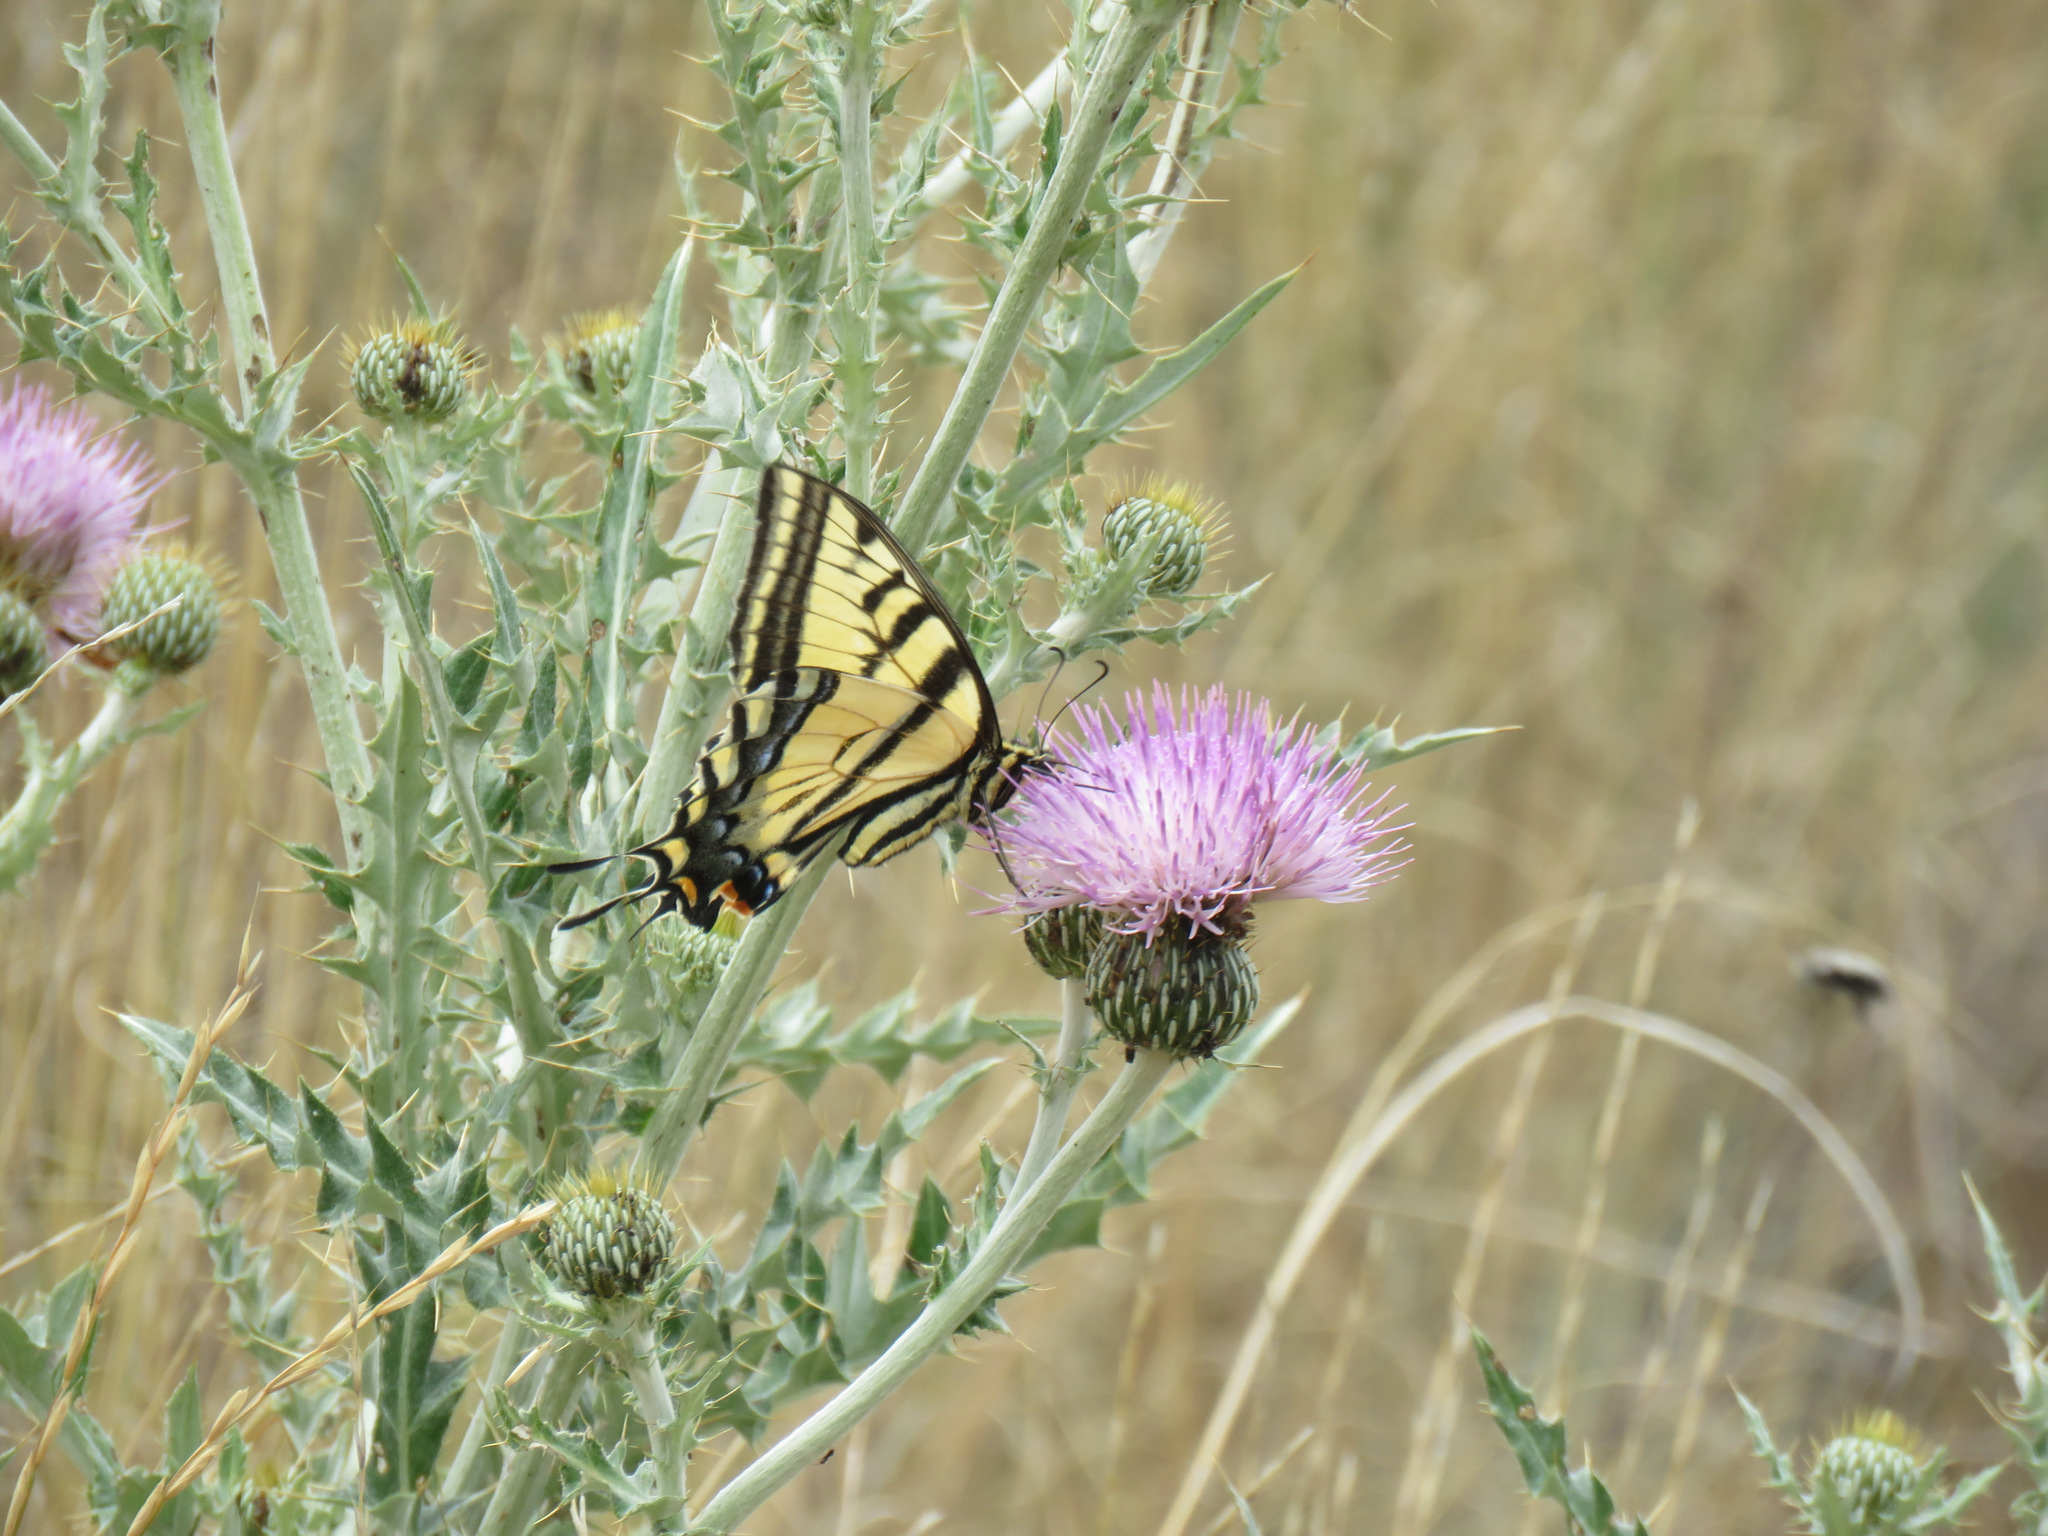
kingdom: Animalia
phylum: Arthropoda
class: Insecta
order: Lepidoptera
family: Papilionidae
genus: Papilio
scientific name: Papilio multicaudata
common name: Two-tailed tiger swallowtail
